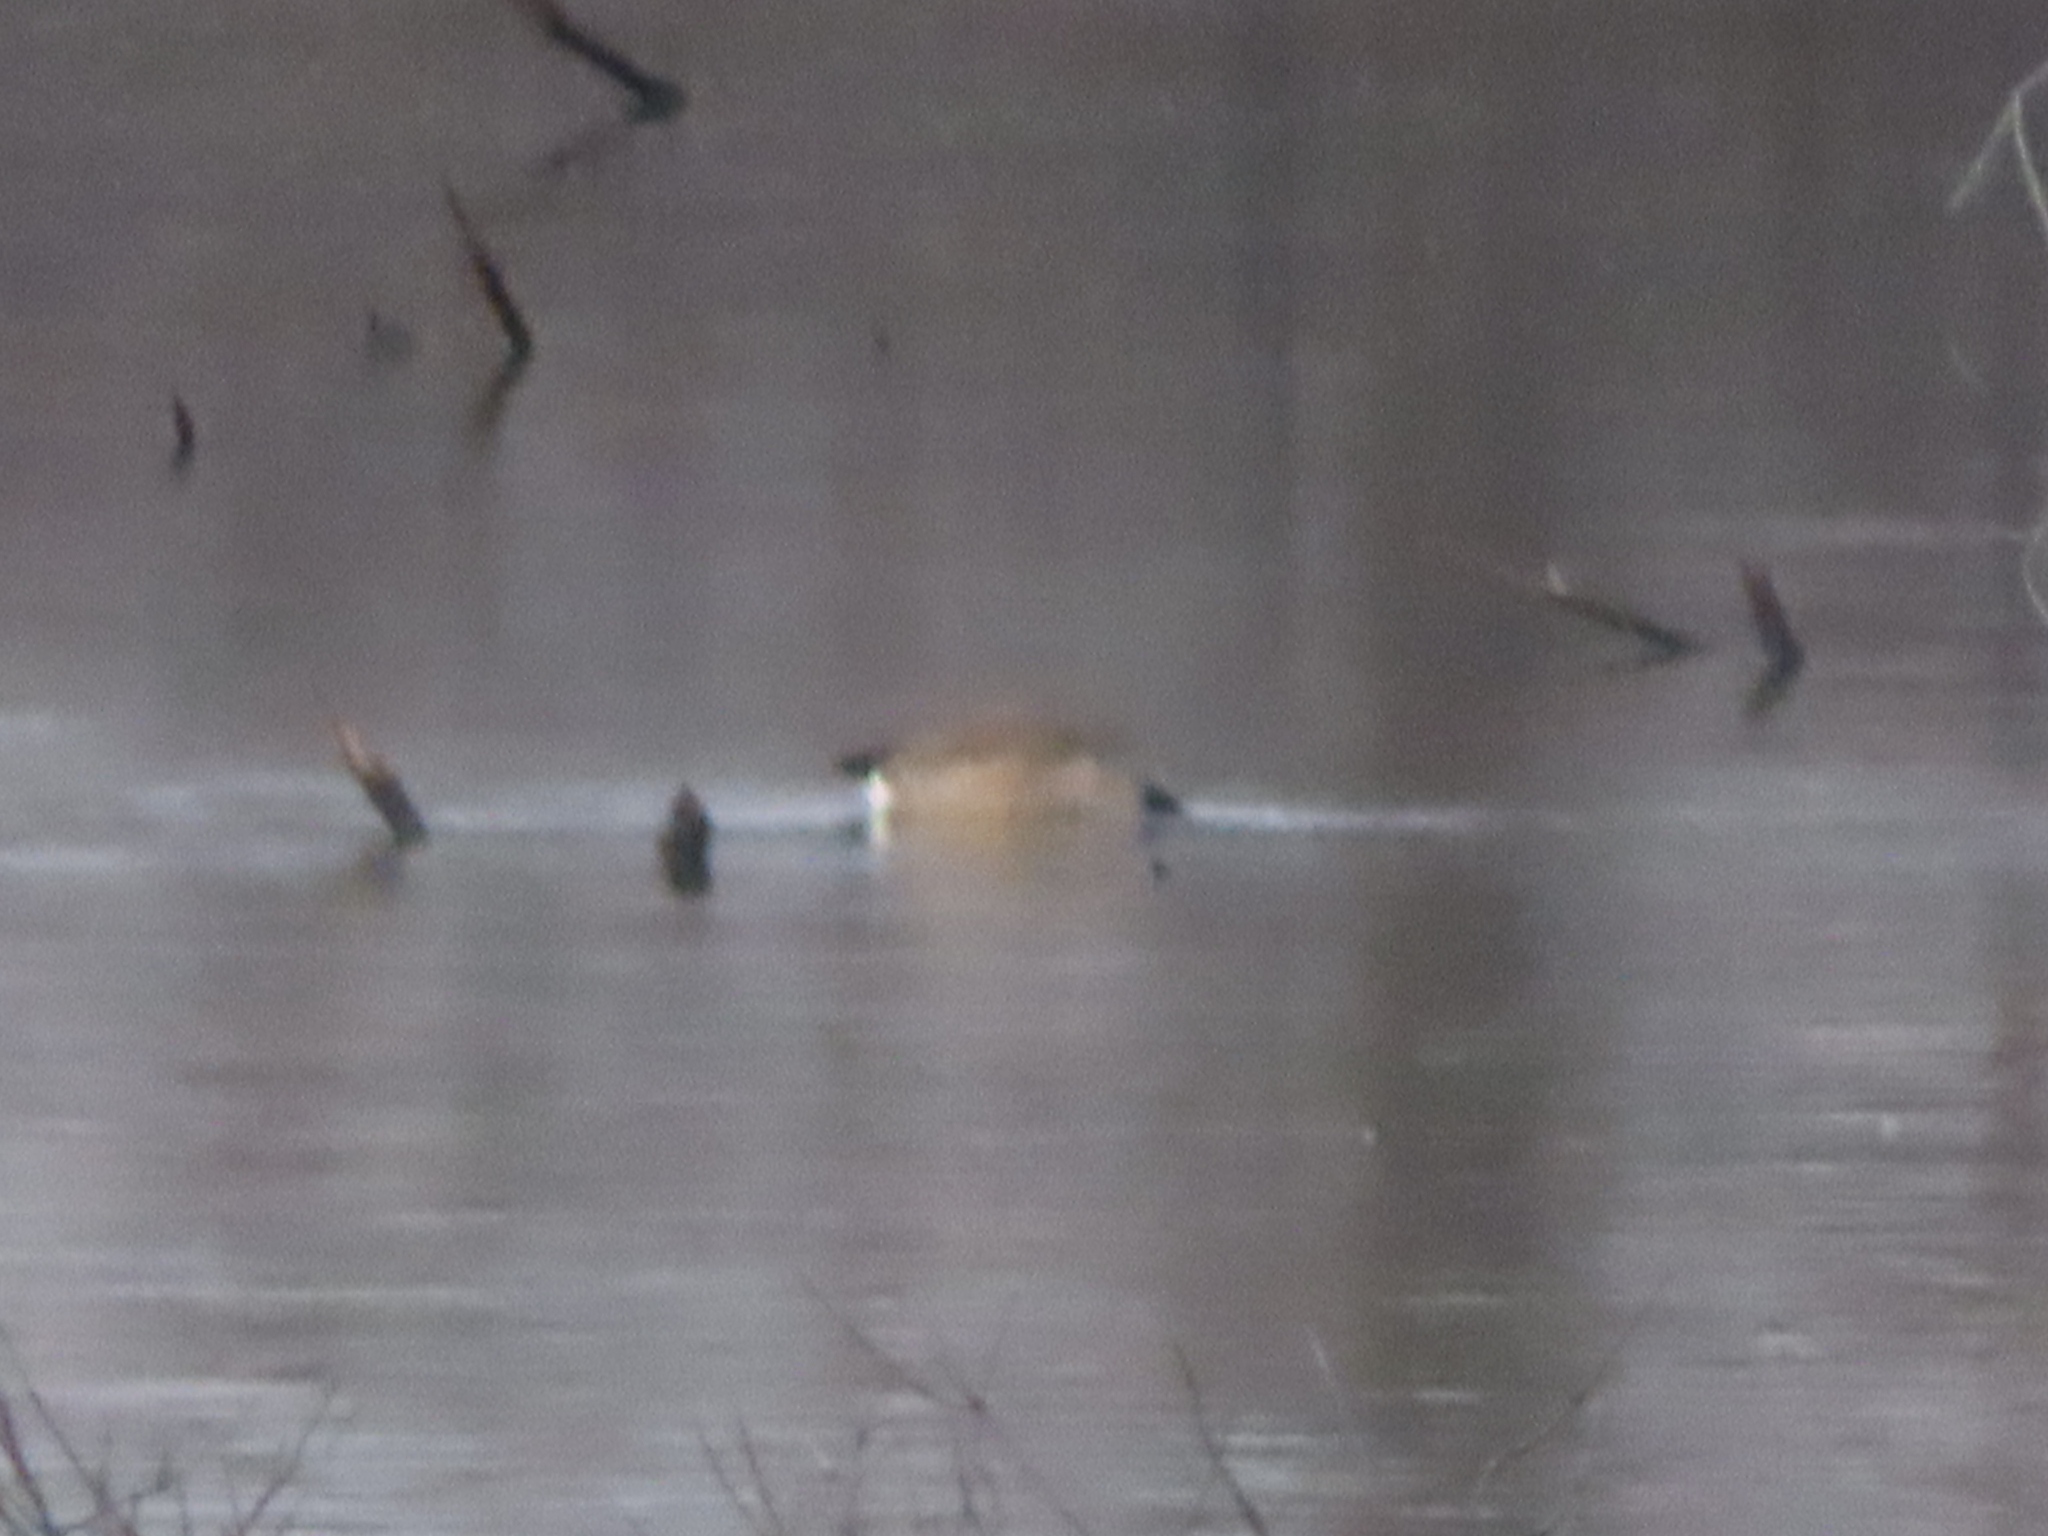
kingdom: Animalia
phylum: Chordata
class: Aves
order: Anseriformes
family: Anatidae
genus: Branta
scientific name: Branta canadensis
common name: Canada goose
